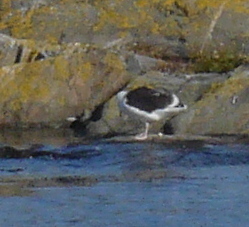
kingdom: Animalia
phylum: Chordata
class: Aves
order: Charadriiformes
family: Laridae
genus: Larus
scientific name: Larus marinus
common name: Great black-backed gull
